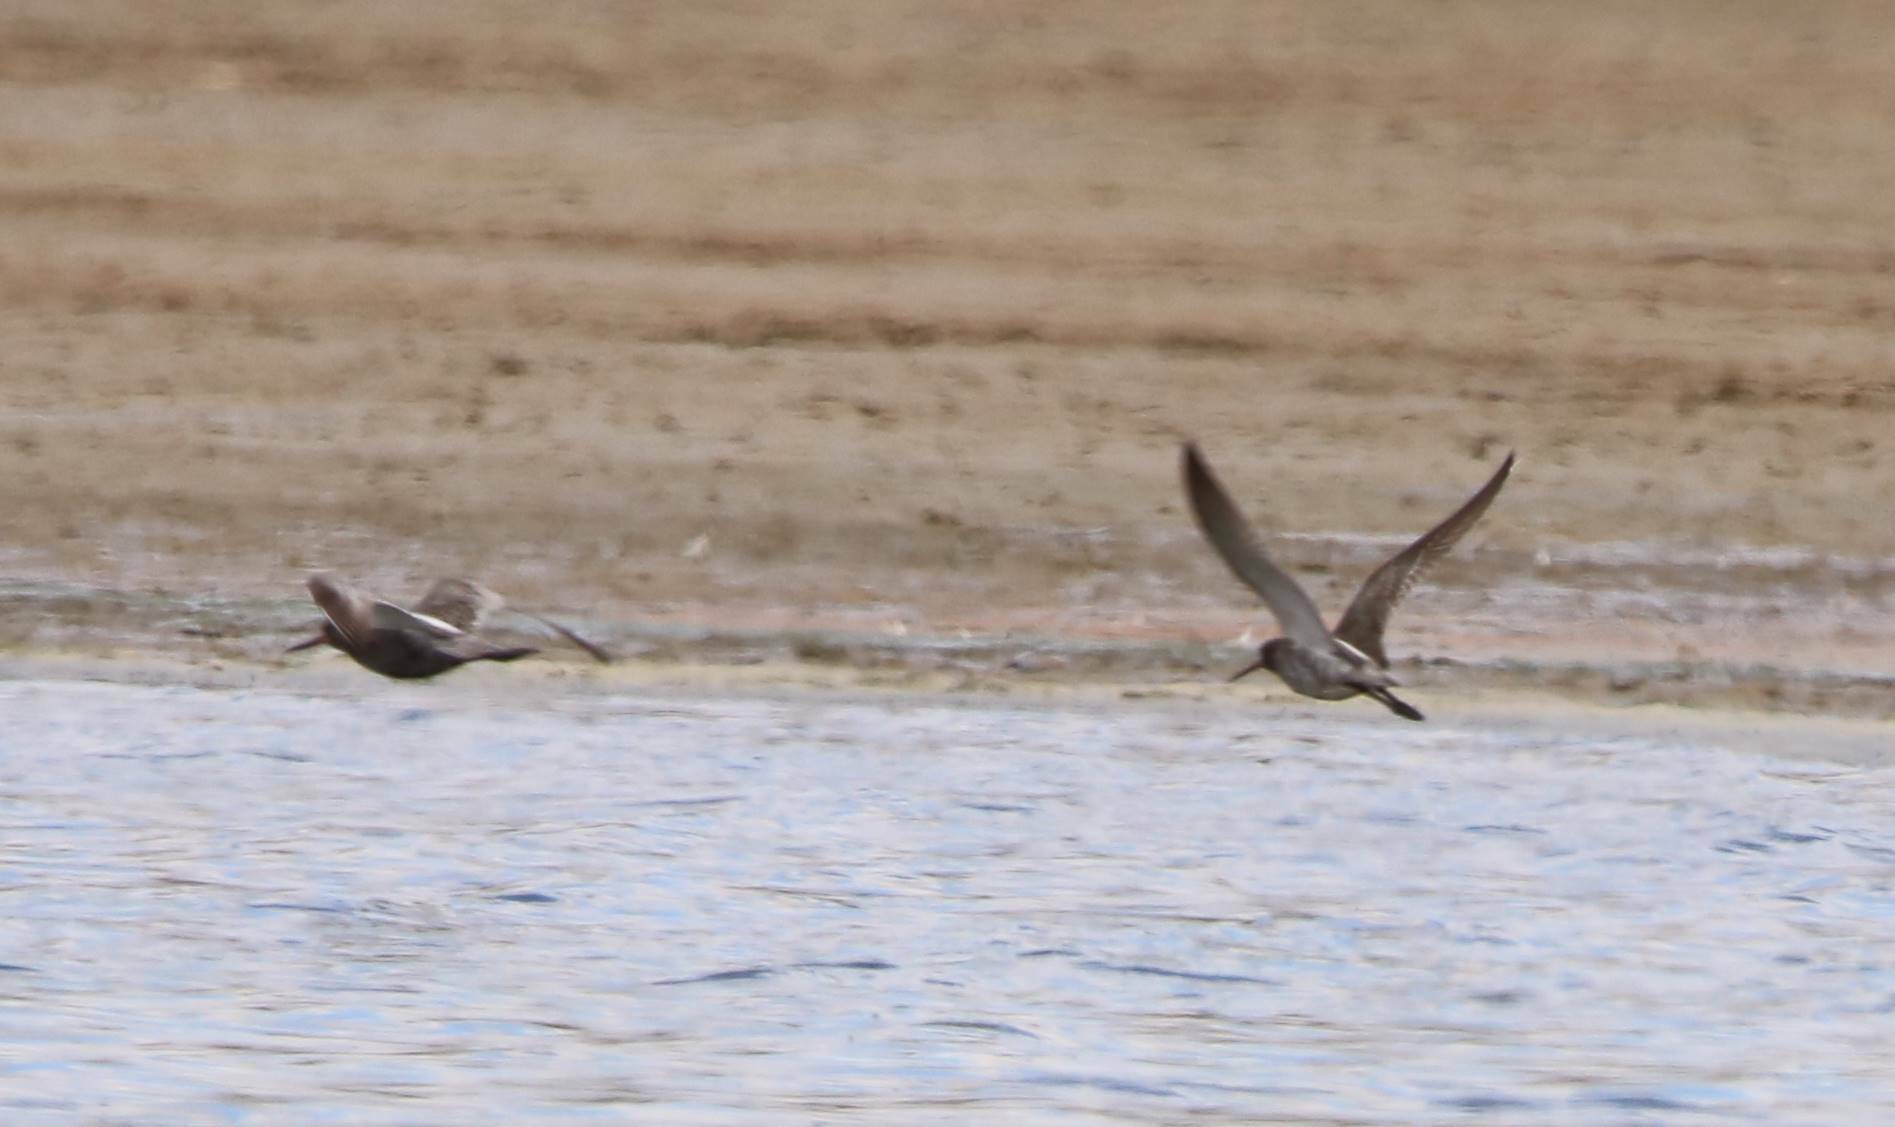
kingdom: Animalia
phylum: Chordata
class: Aves
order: Charadriiformes
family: Scolopacidae
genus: Tringa
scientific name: Tringa erythropus
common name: Spotted redshank
